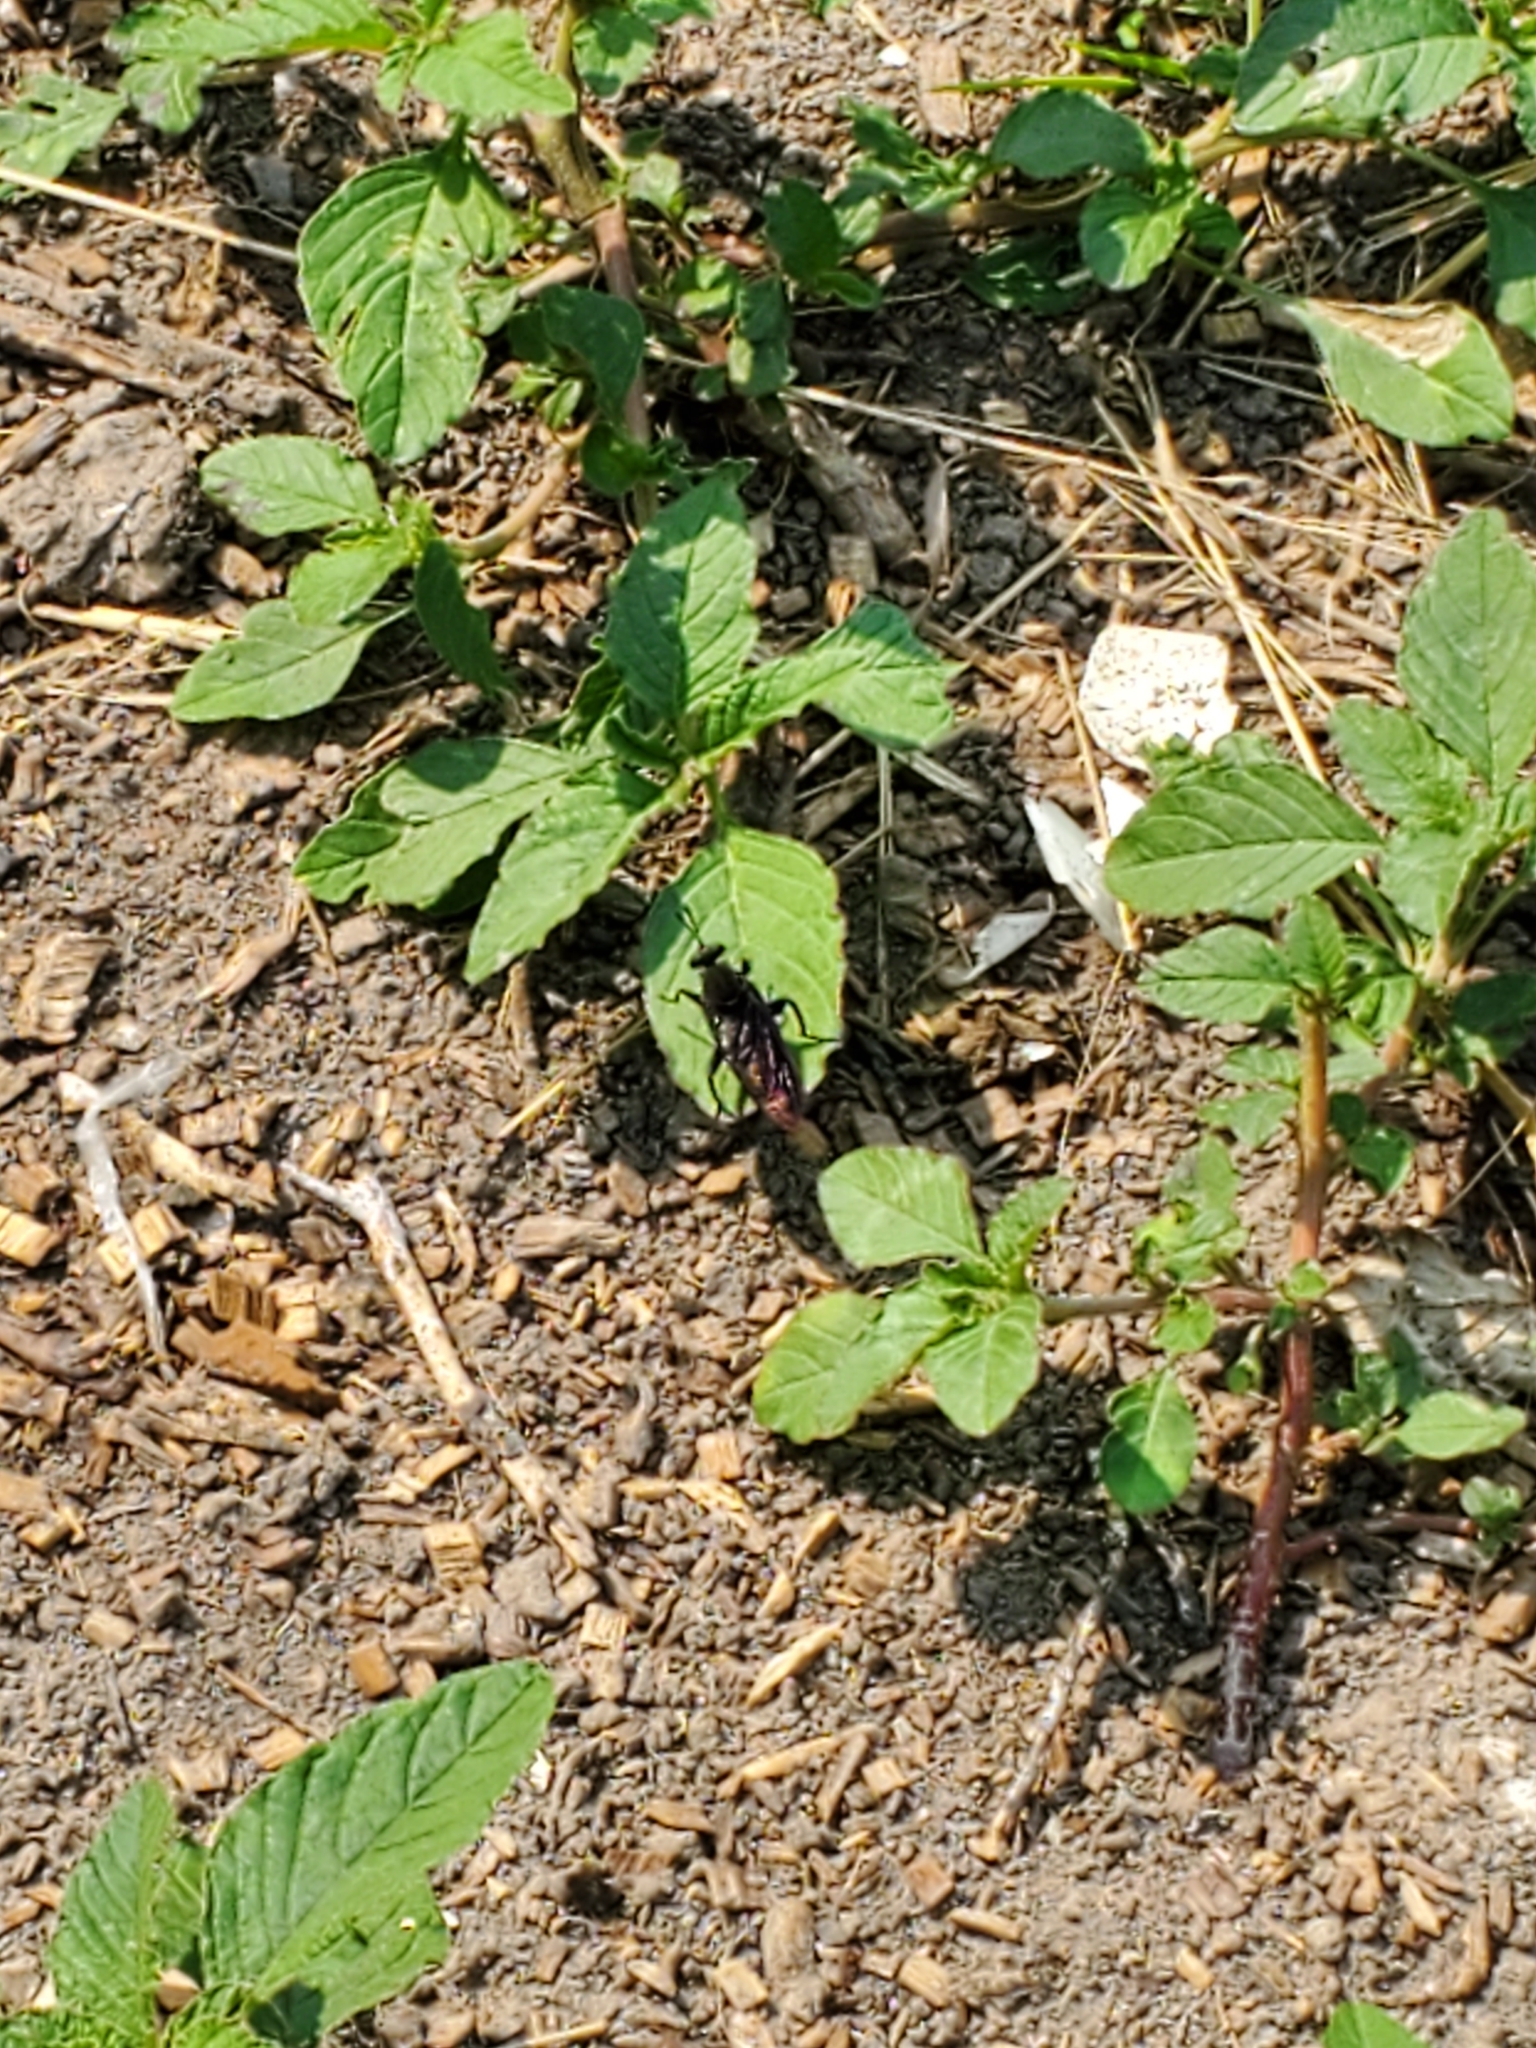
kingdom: Animalia
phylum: Arthropoda
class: Insecta
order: Diptera
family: Mydidae
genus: Mydas
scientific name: Mydas clavatus
